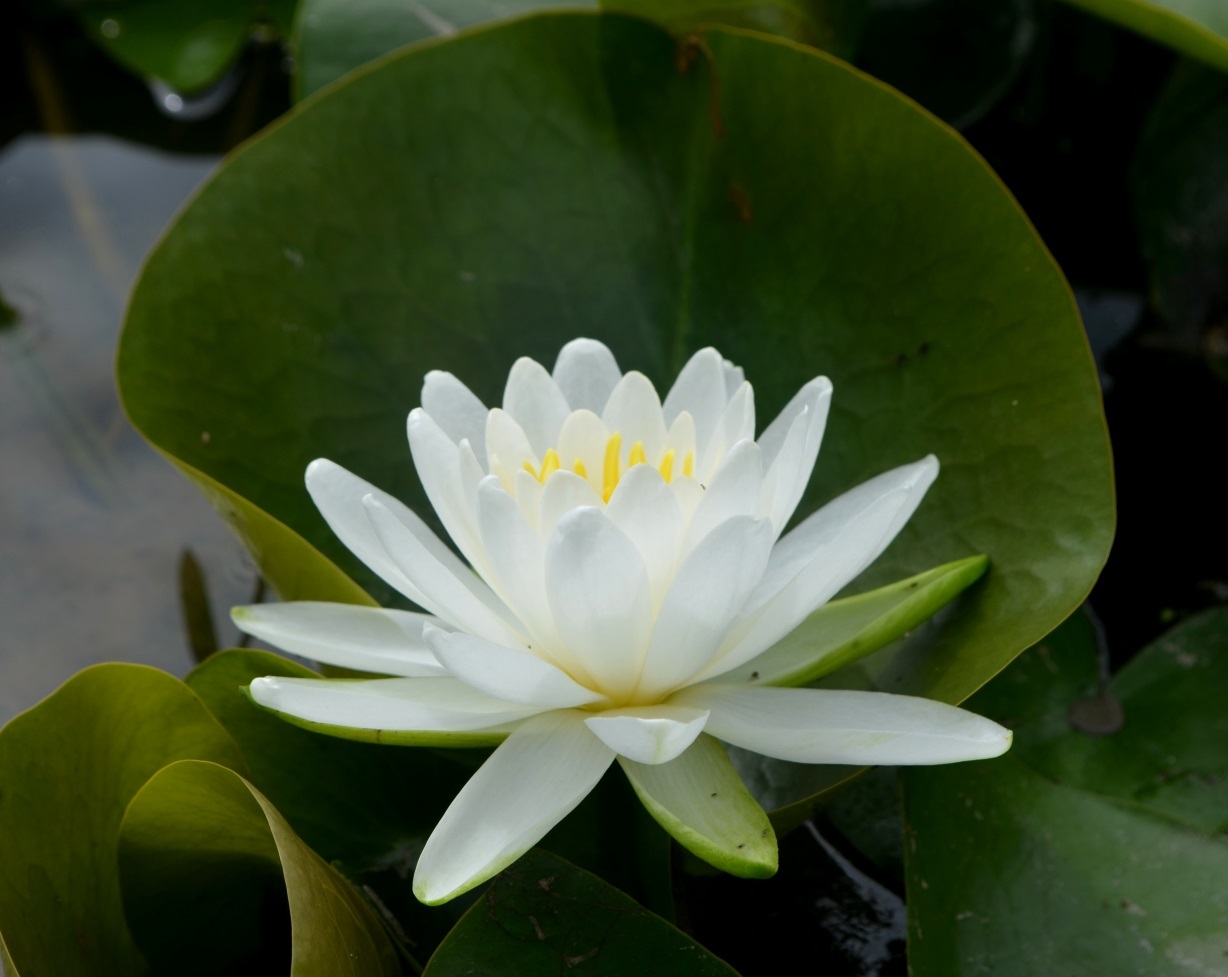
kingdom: Plantae
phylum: Tracheophyta
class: Magnoliopsida
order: Nymphaeales
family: Nymphaeaceae
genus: Nymphaea
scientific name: Nymphaea odorata
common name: Fragrant water-lily
